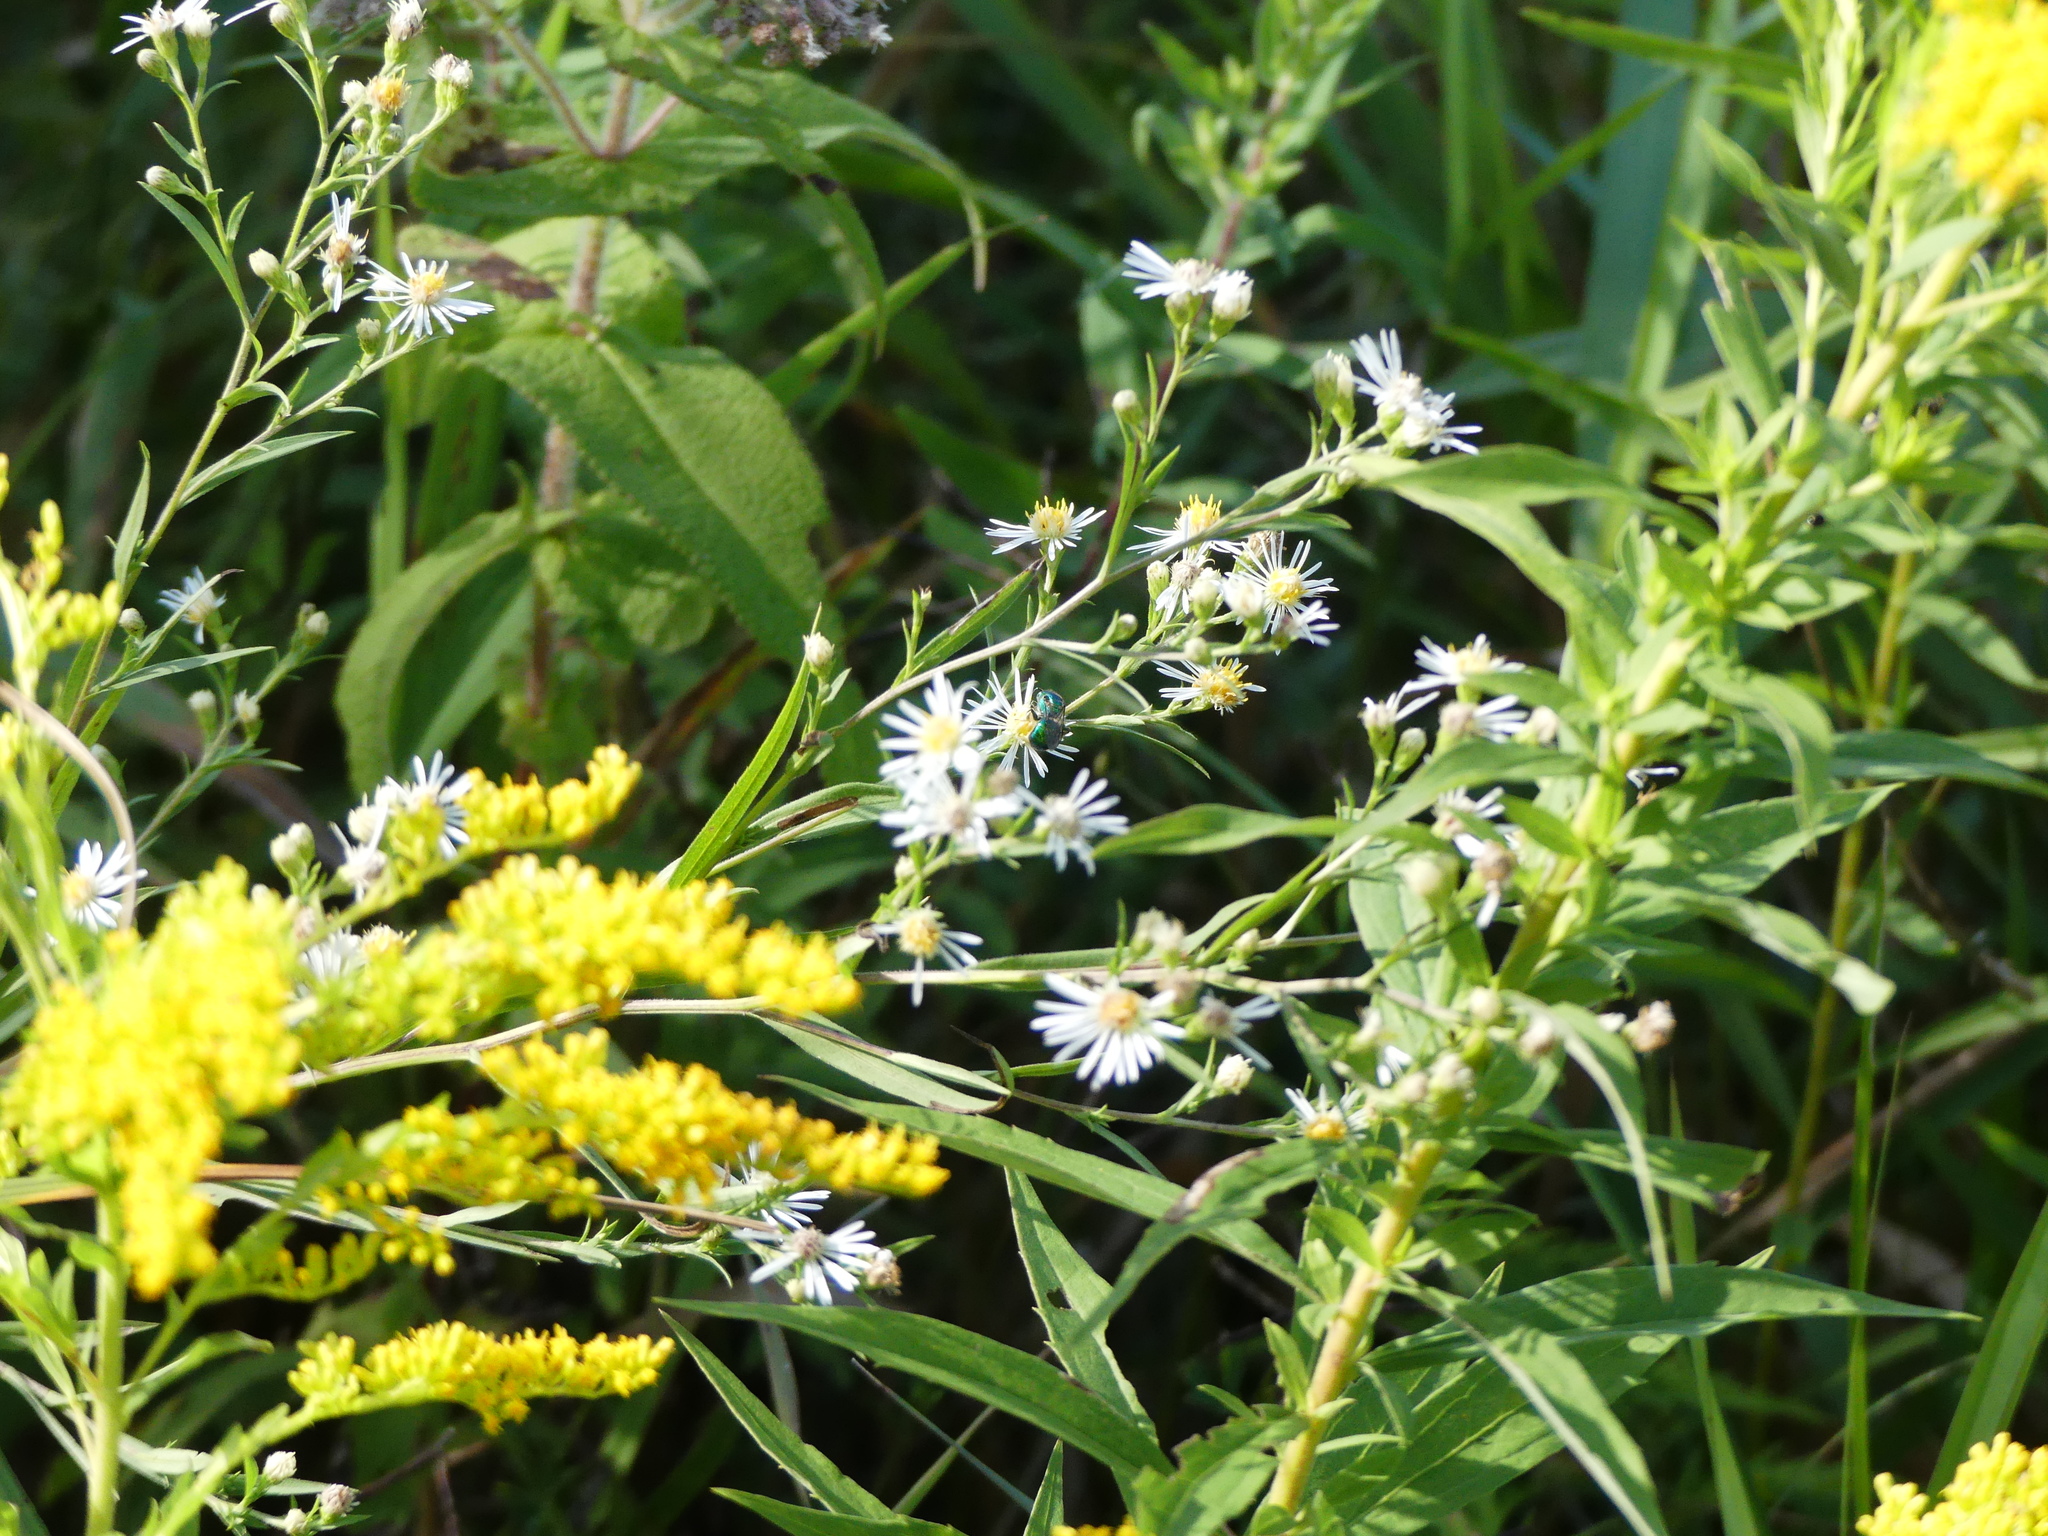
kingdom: Plantae
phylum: Tracheophyta
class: Magnoliopsida
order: Asterales
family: Asteraceae
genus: Symphyotrichum
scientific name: Symphyotrichum lanceolatum
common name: Panicled aster
